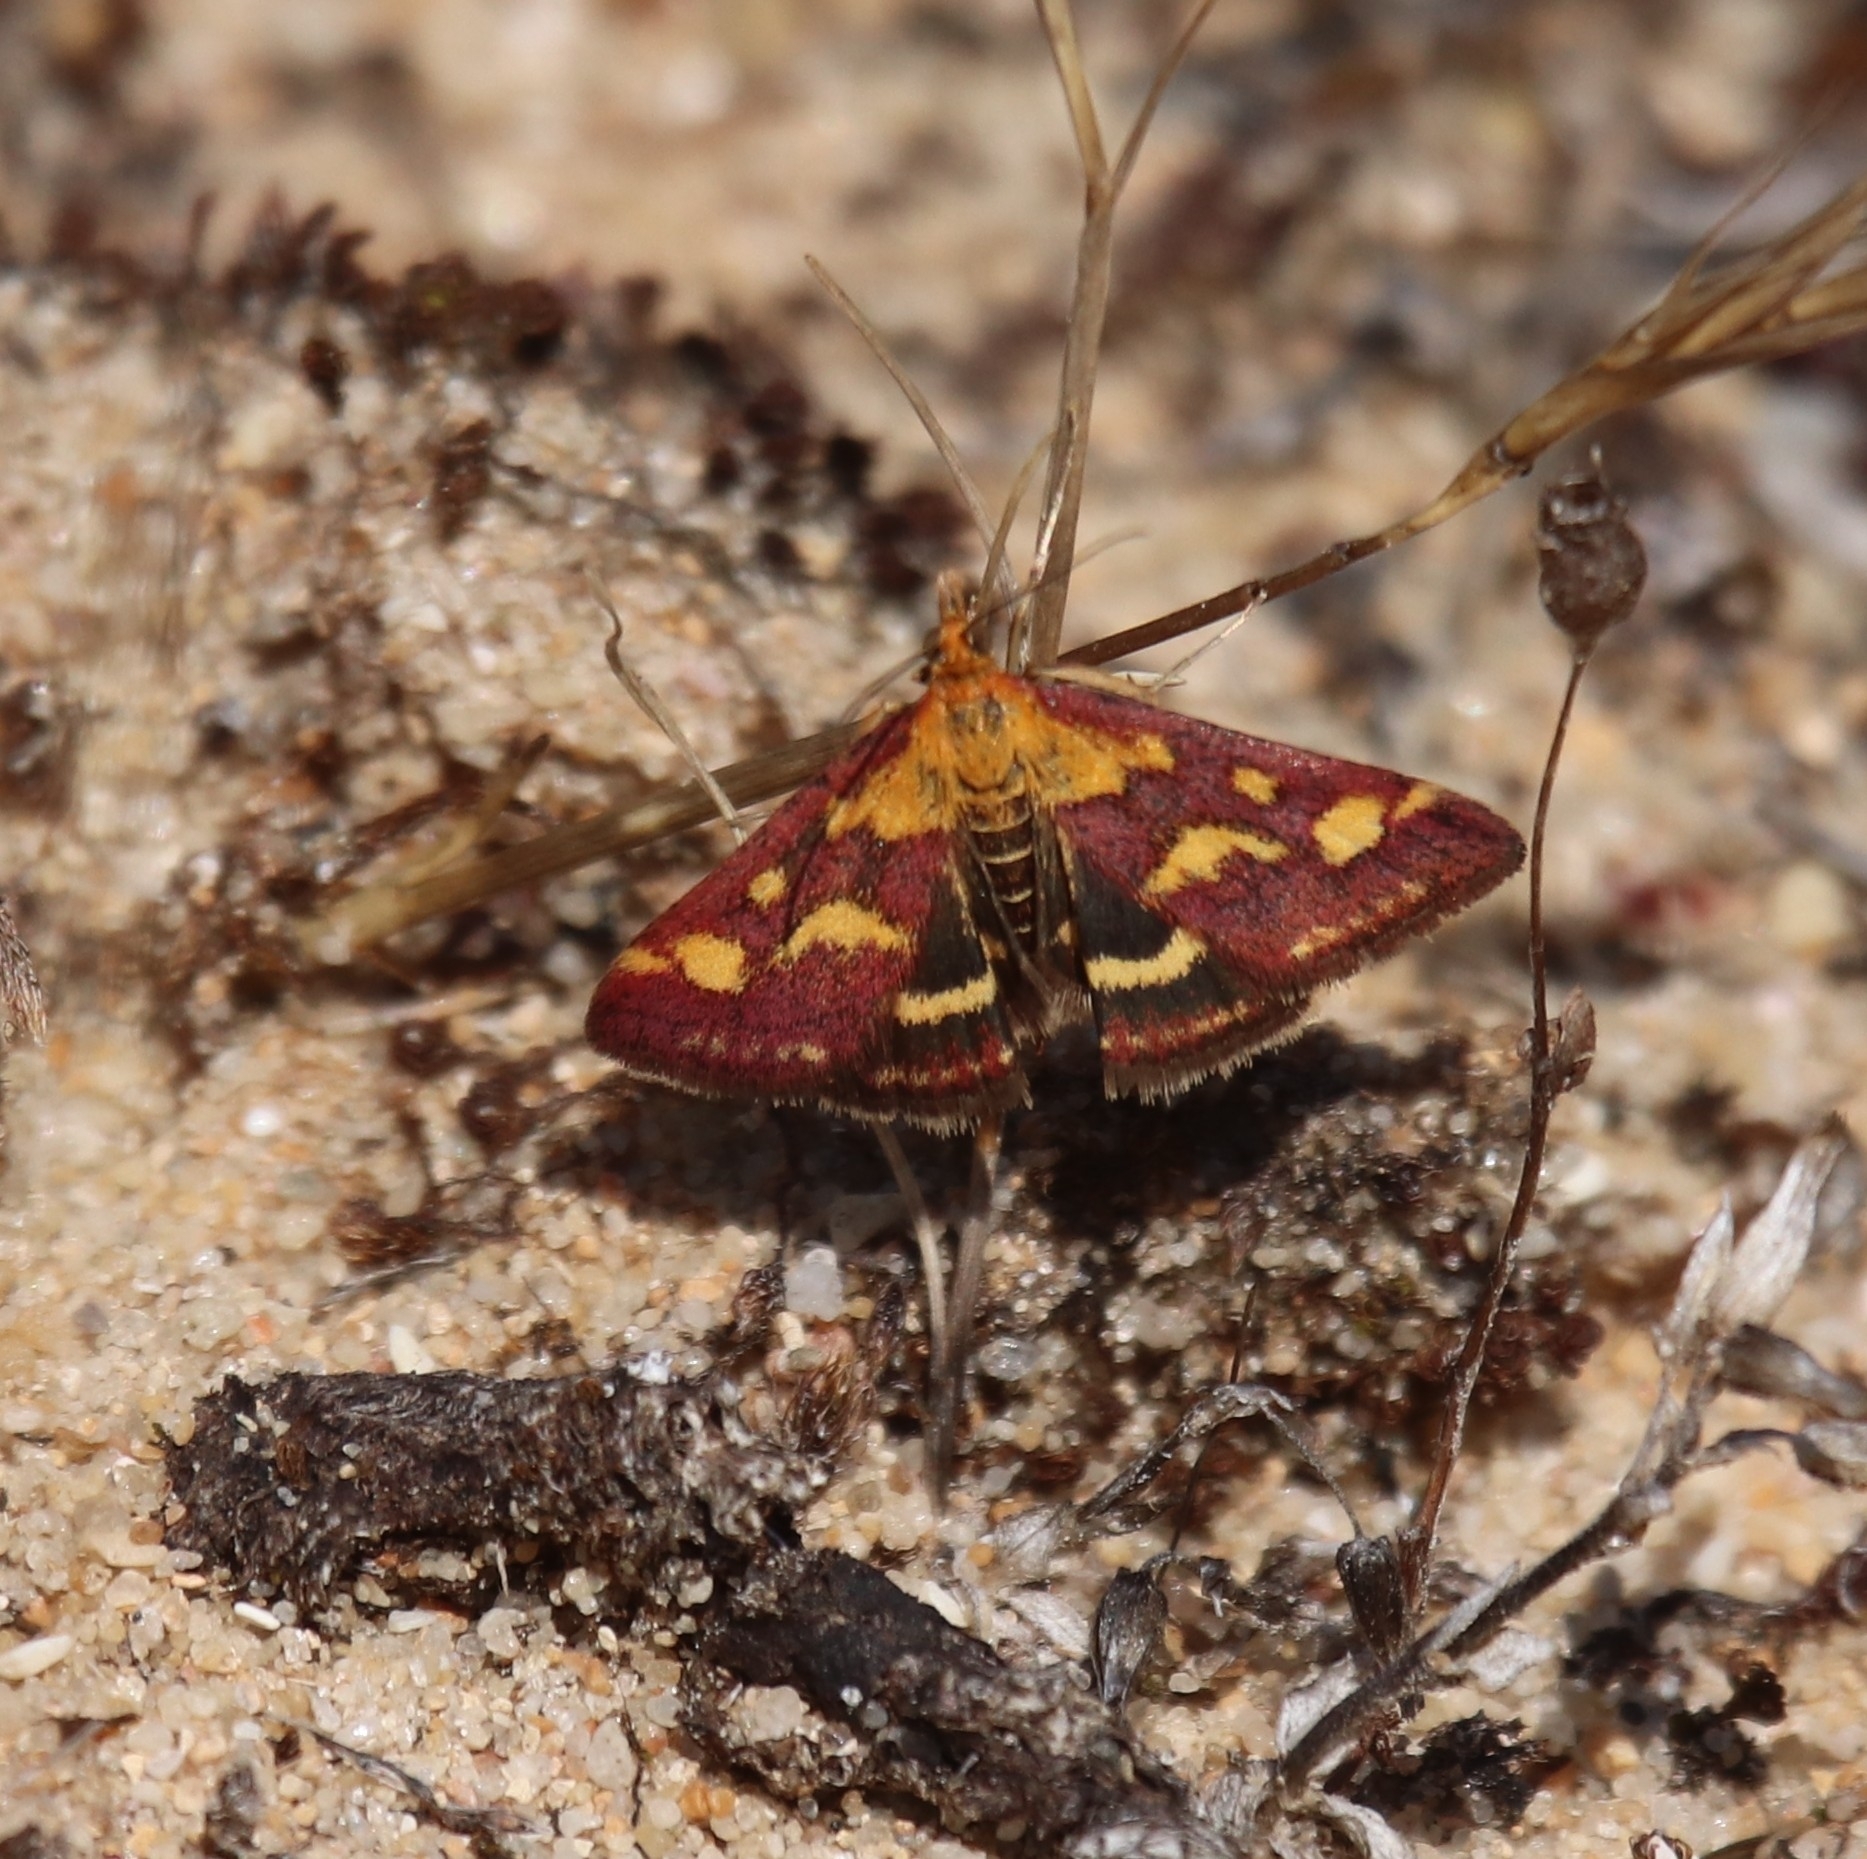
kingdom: Animalia
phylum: Arthropoda
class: Insecta
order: Lepidoptera
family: Crambidae
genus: Pyrausta
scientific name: Pyrausta purpuralis
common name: Common purple & gold
